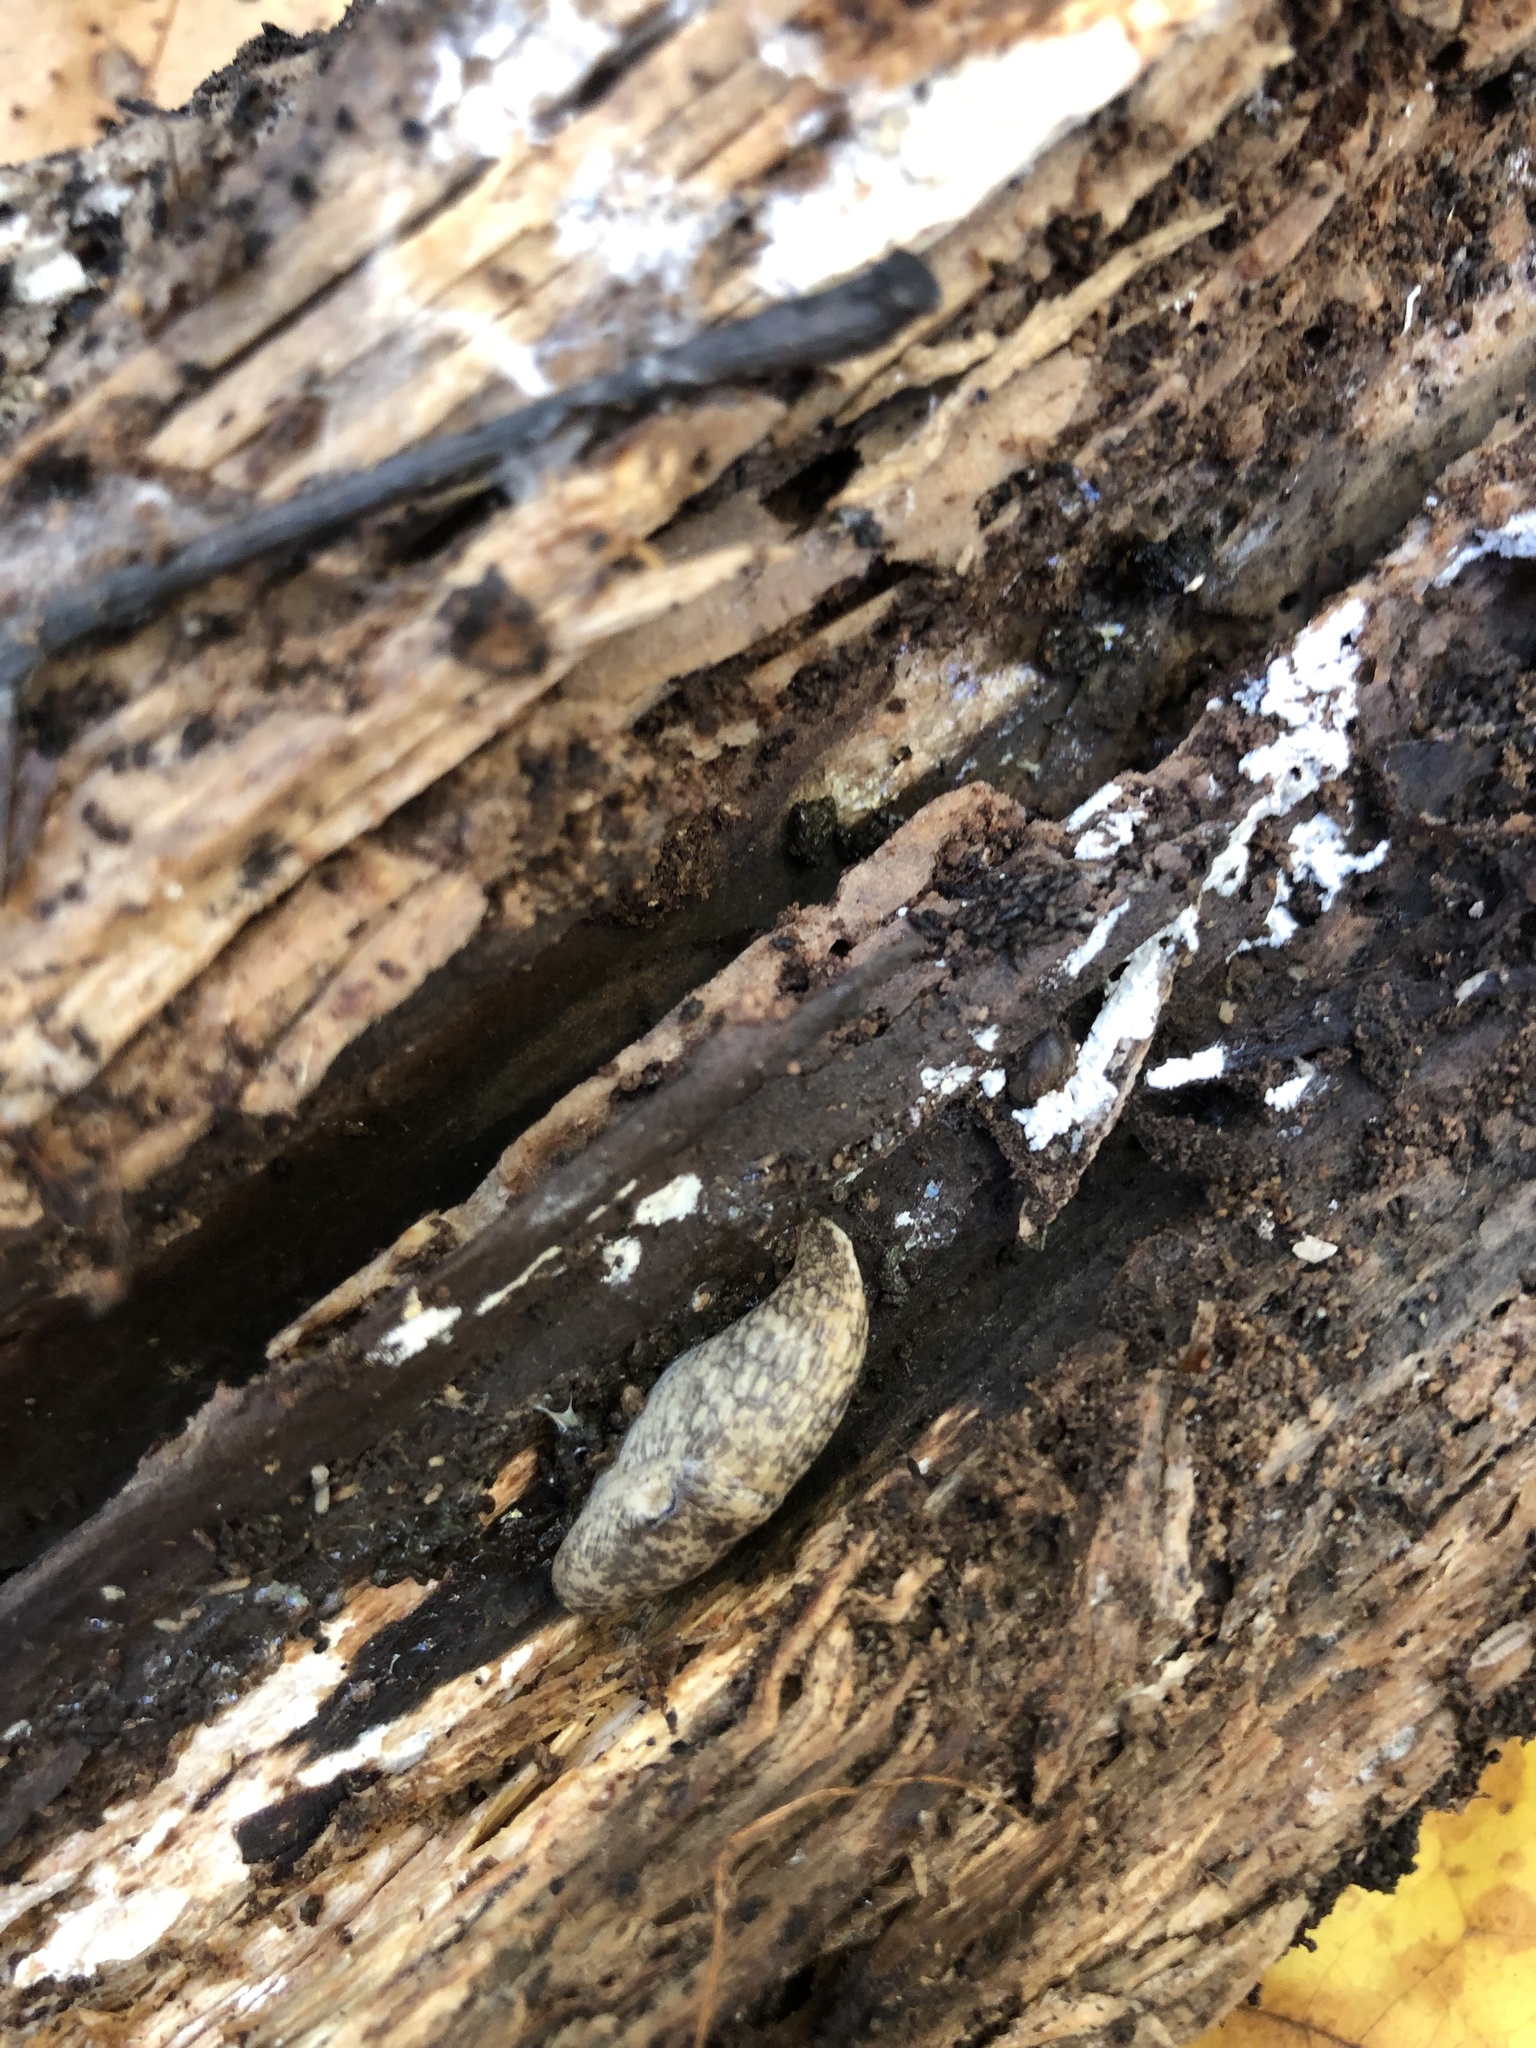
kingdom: Animalia
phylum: Mollusca
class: Gastropoda
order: Stylommatophora
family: Agriolimacidae
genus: Deroceras
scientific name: Deroceras reticulatum
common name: Gray field slug
